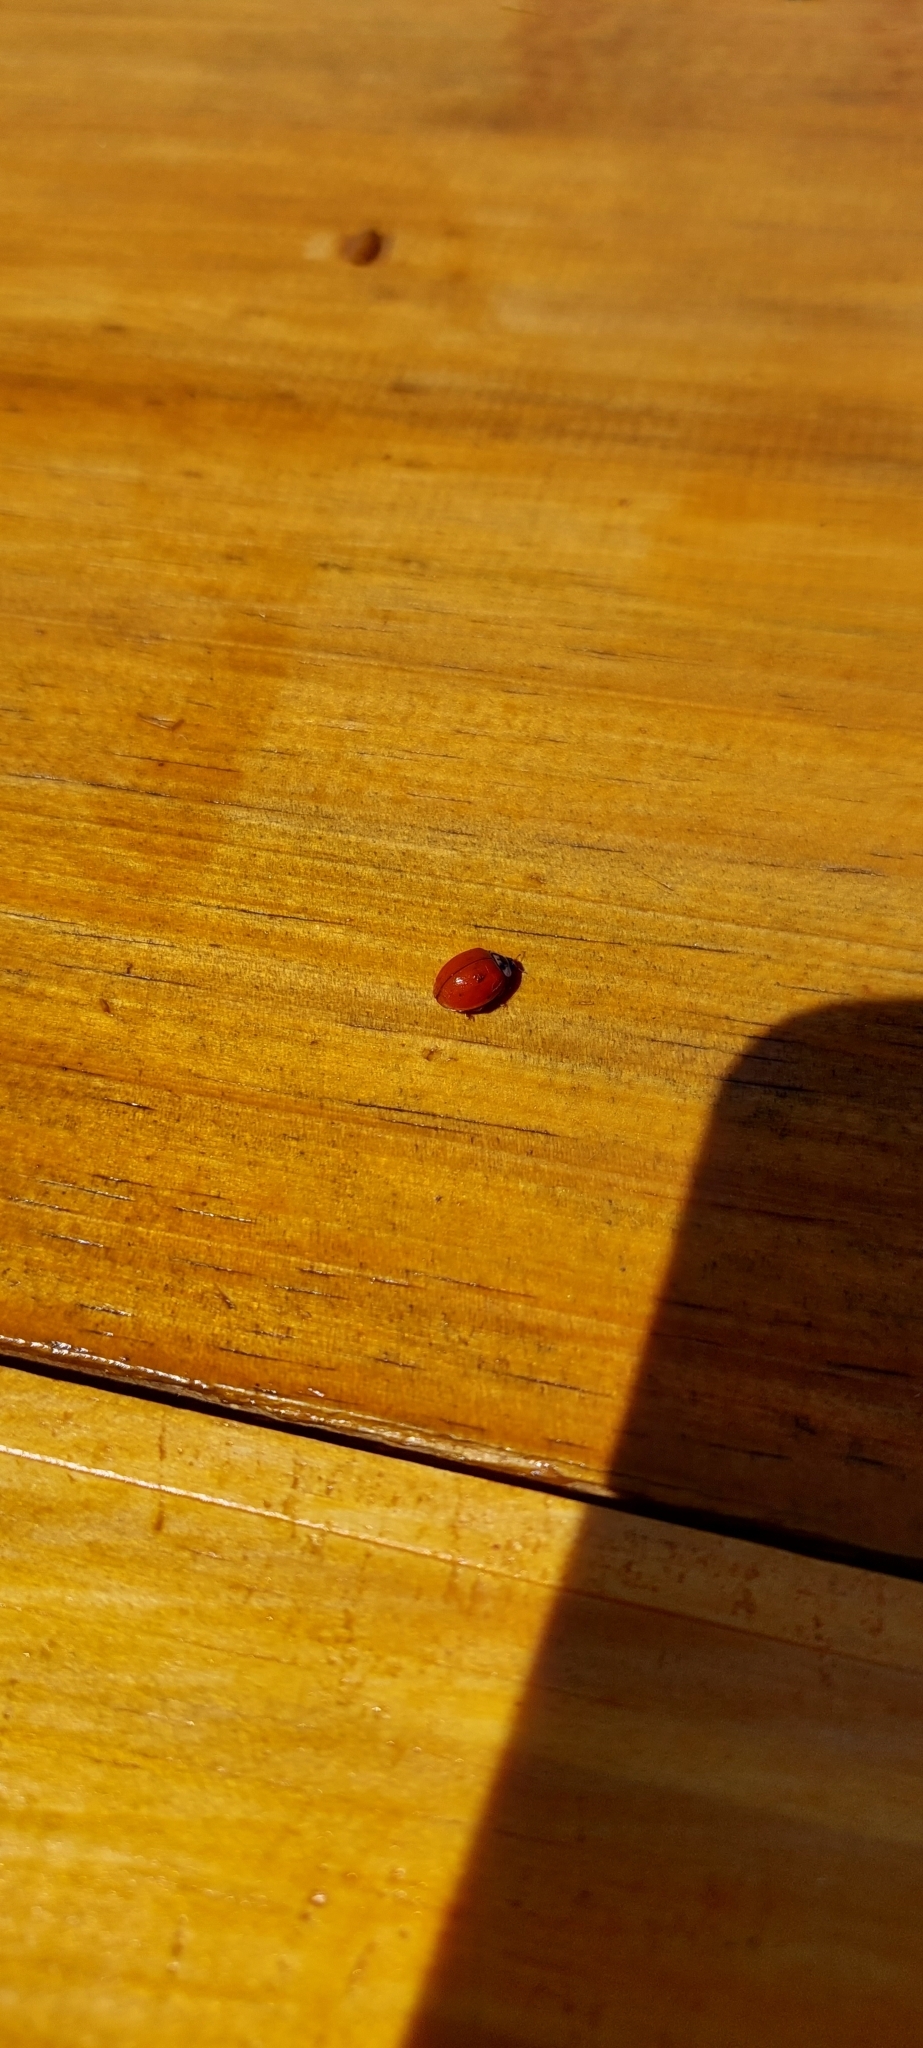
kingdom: Animalia
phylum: Arthropoda
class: Insecta
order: Coleoptera
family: Coccinellidae
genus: Harmonia
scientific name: Harmonia axyridis
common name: Harlequin ladybird
